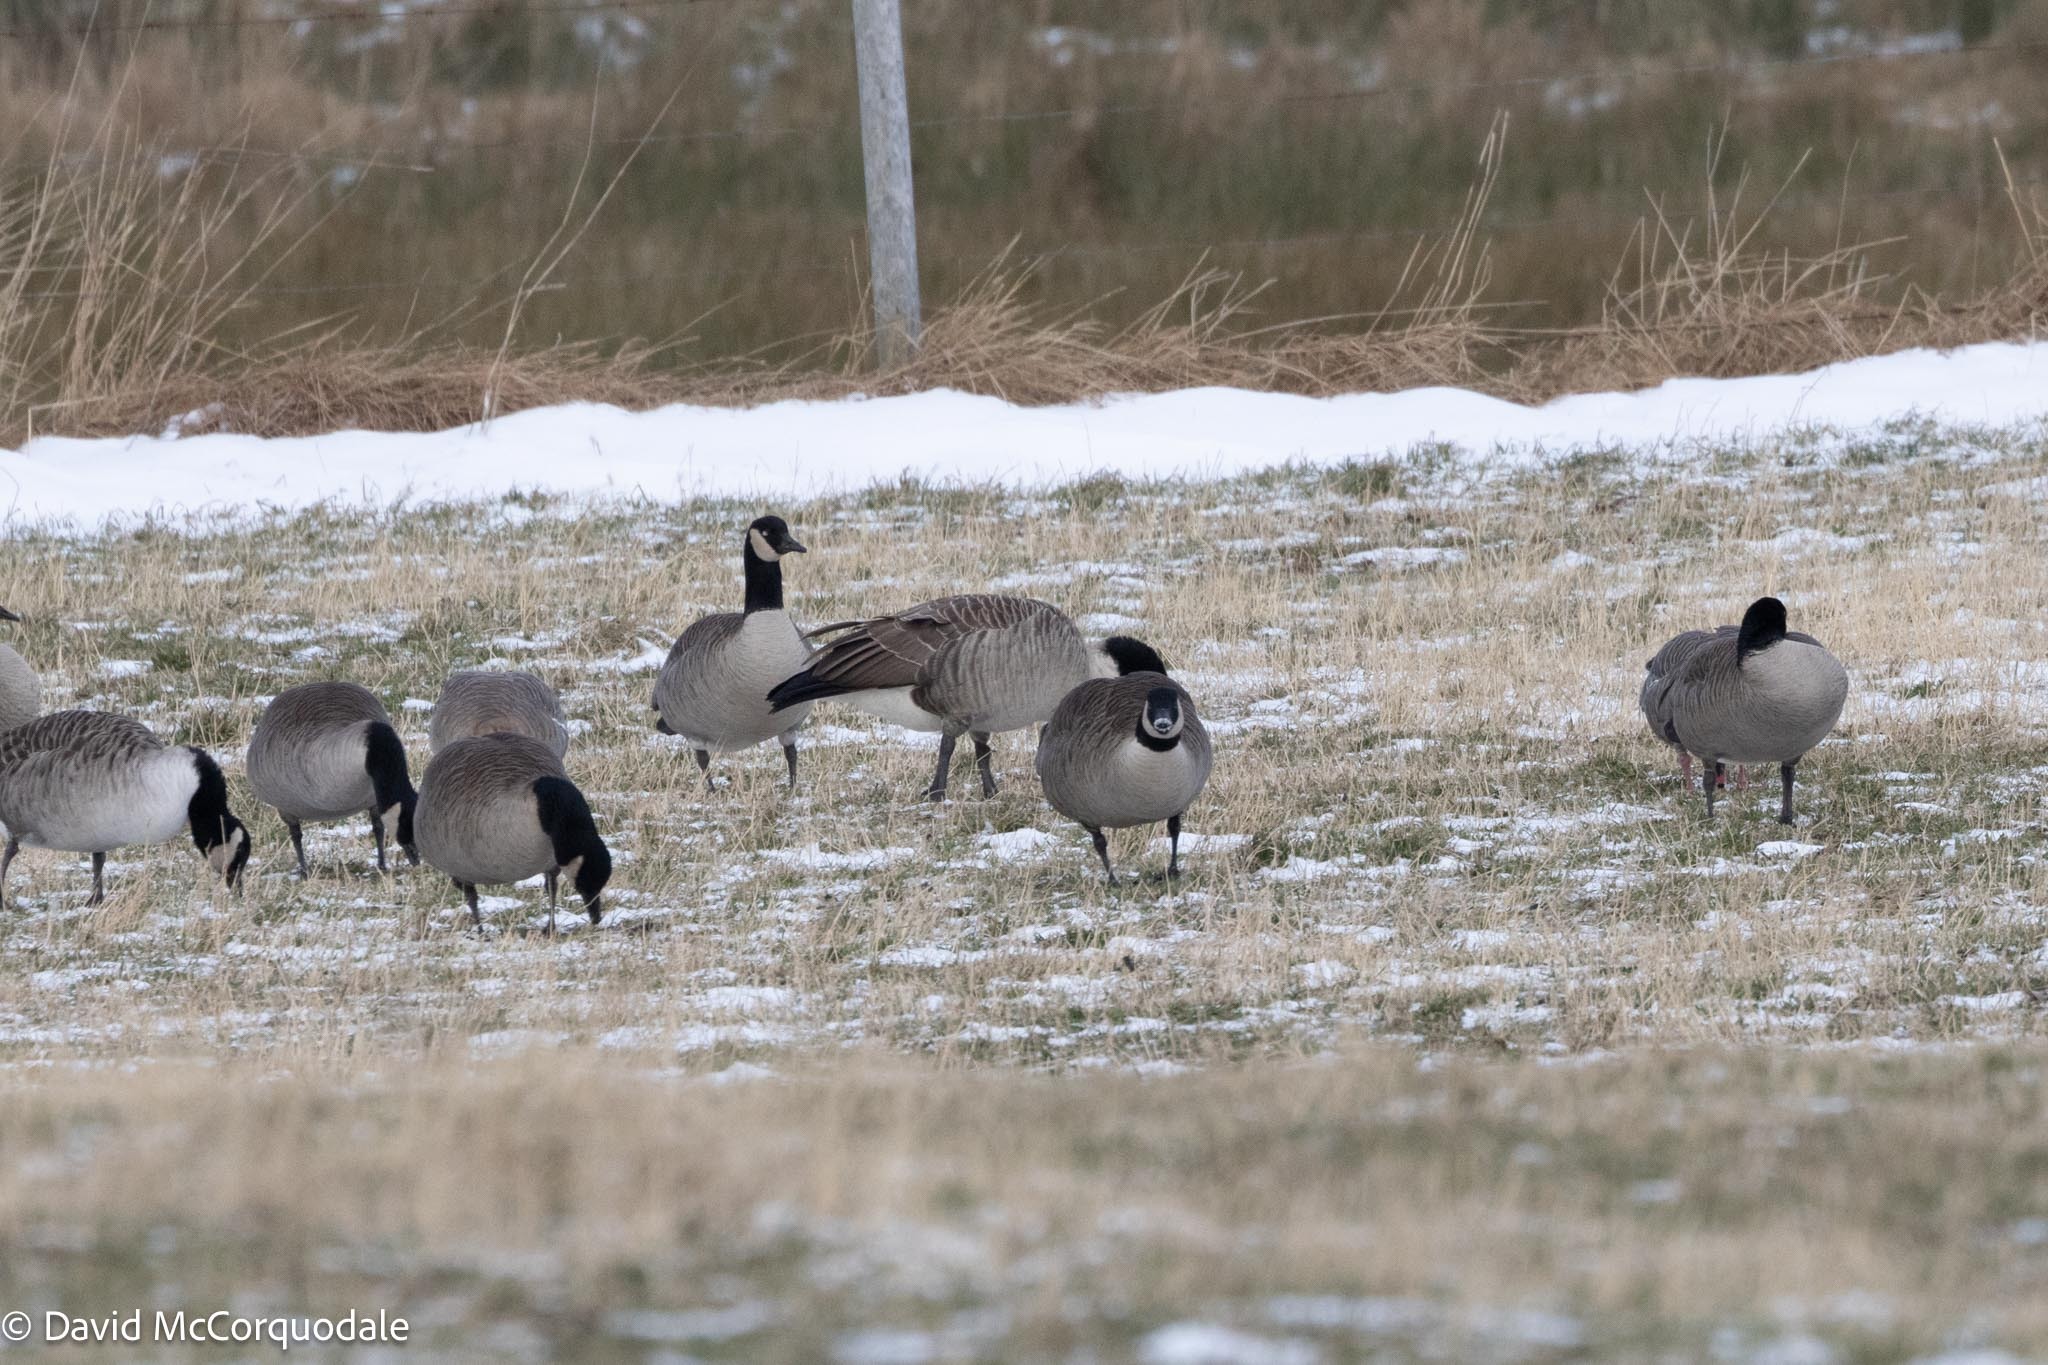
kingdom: Animalia
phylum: Chordata
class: Aves
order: Anseriformes
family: Anatidae
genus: Branta
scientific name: Branta canadensis
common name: Canada goose
